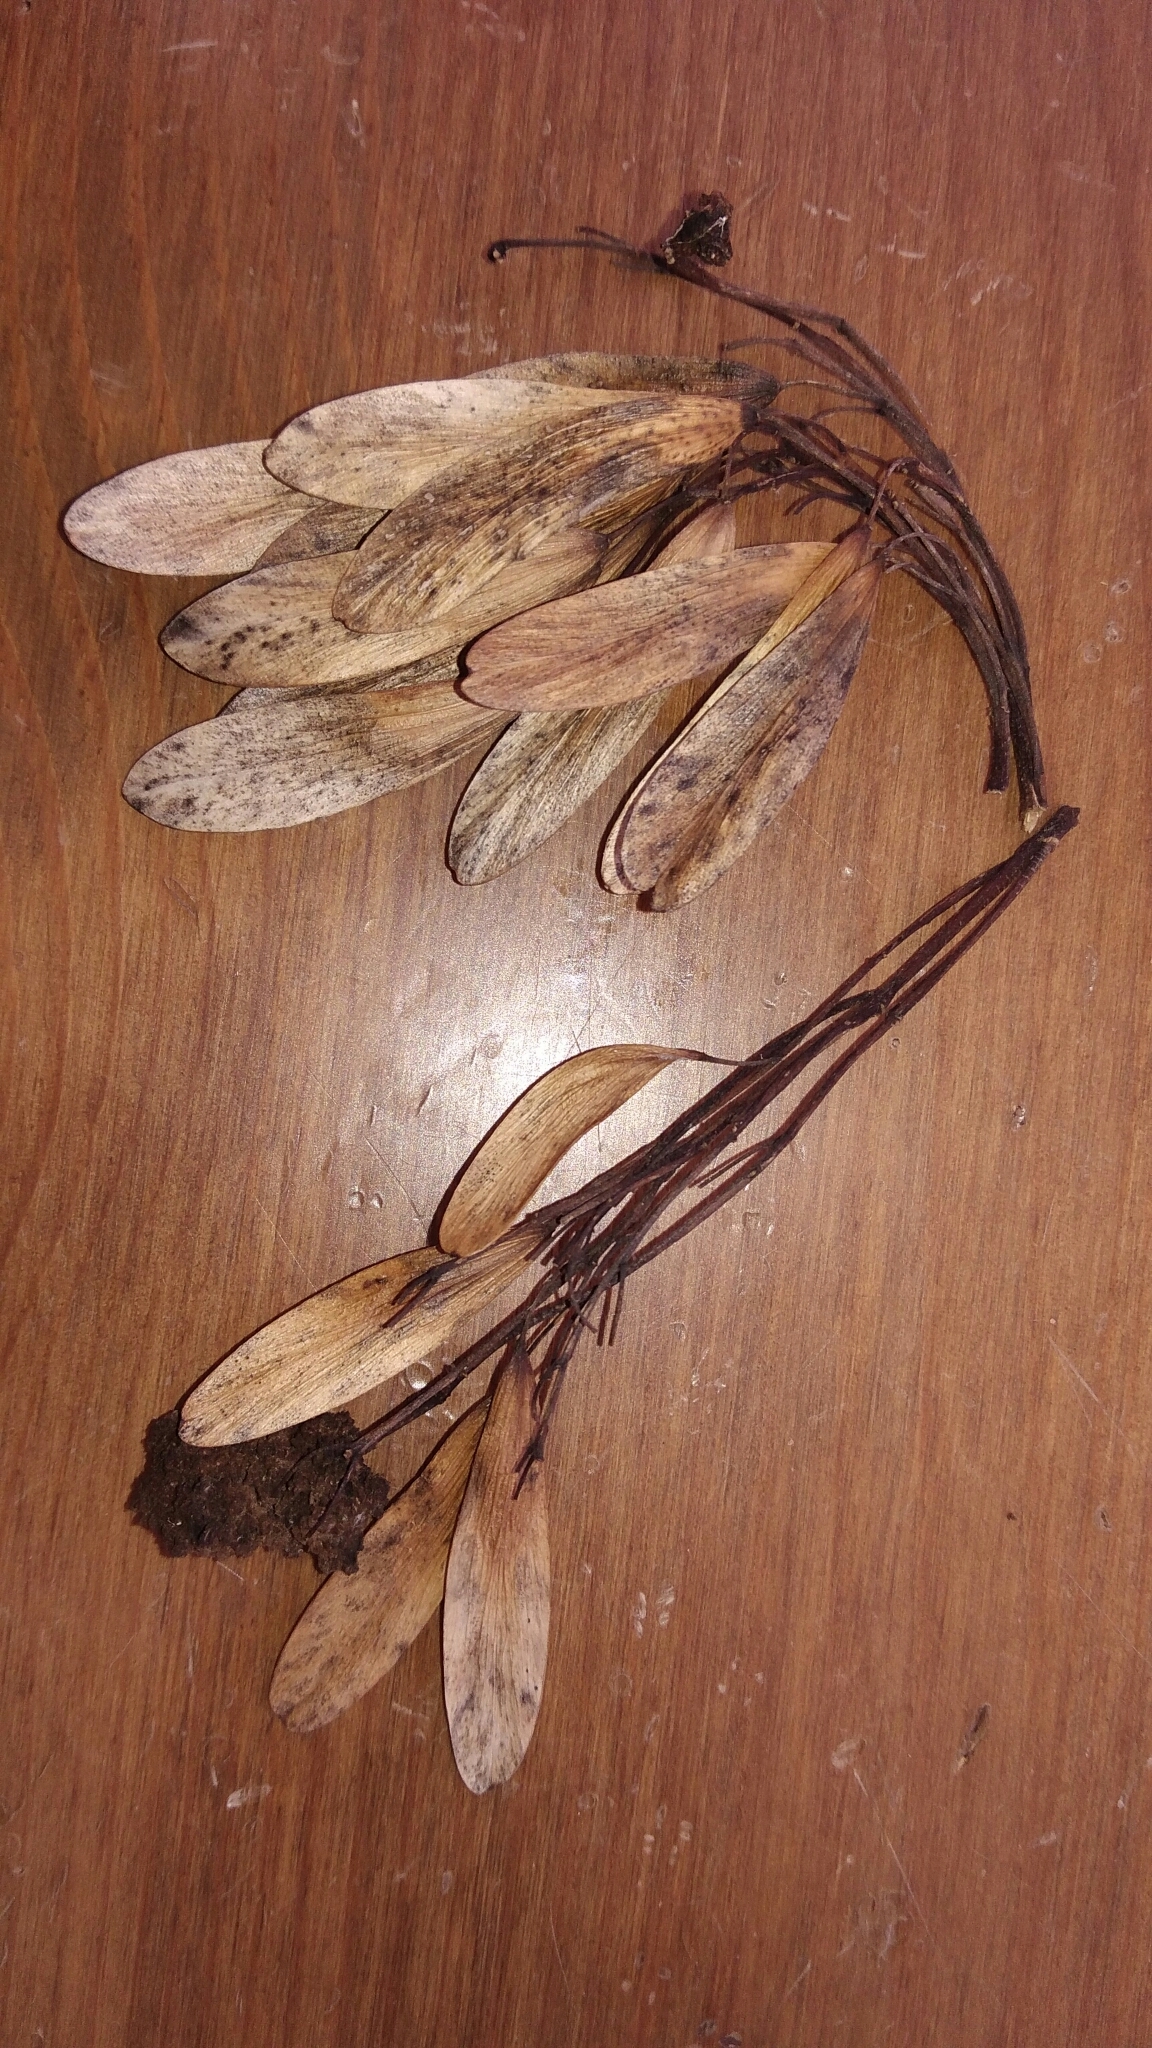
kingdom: Plantae
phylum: Tracheophyta
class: Magnoliopsida
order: Lamiales
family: Oleaceae
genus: Fraxinus
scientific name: Fraxinus excelsior
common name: European ash
